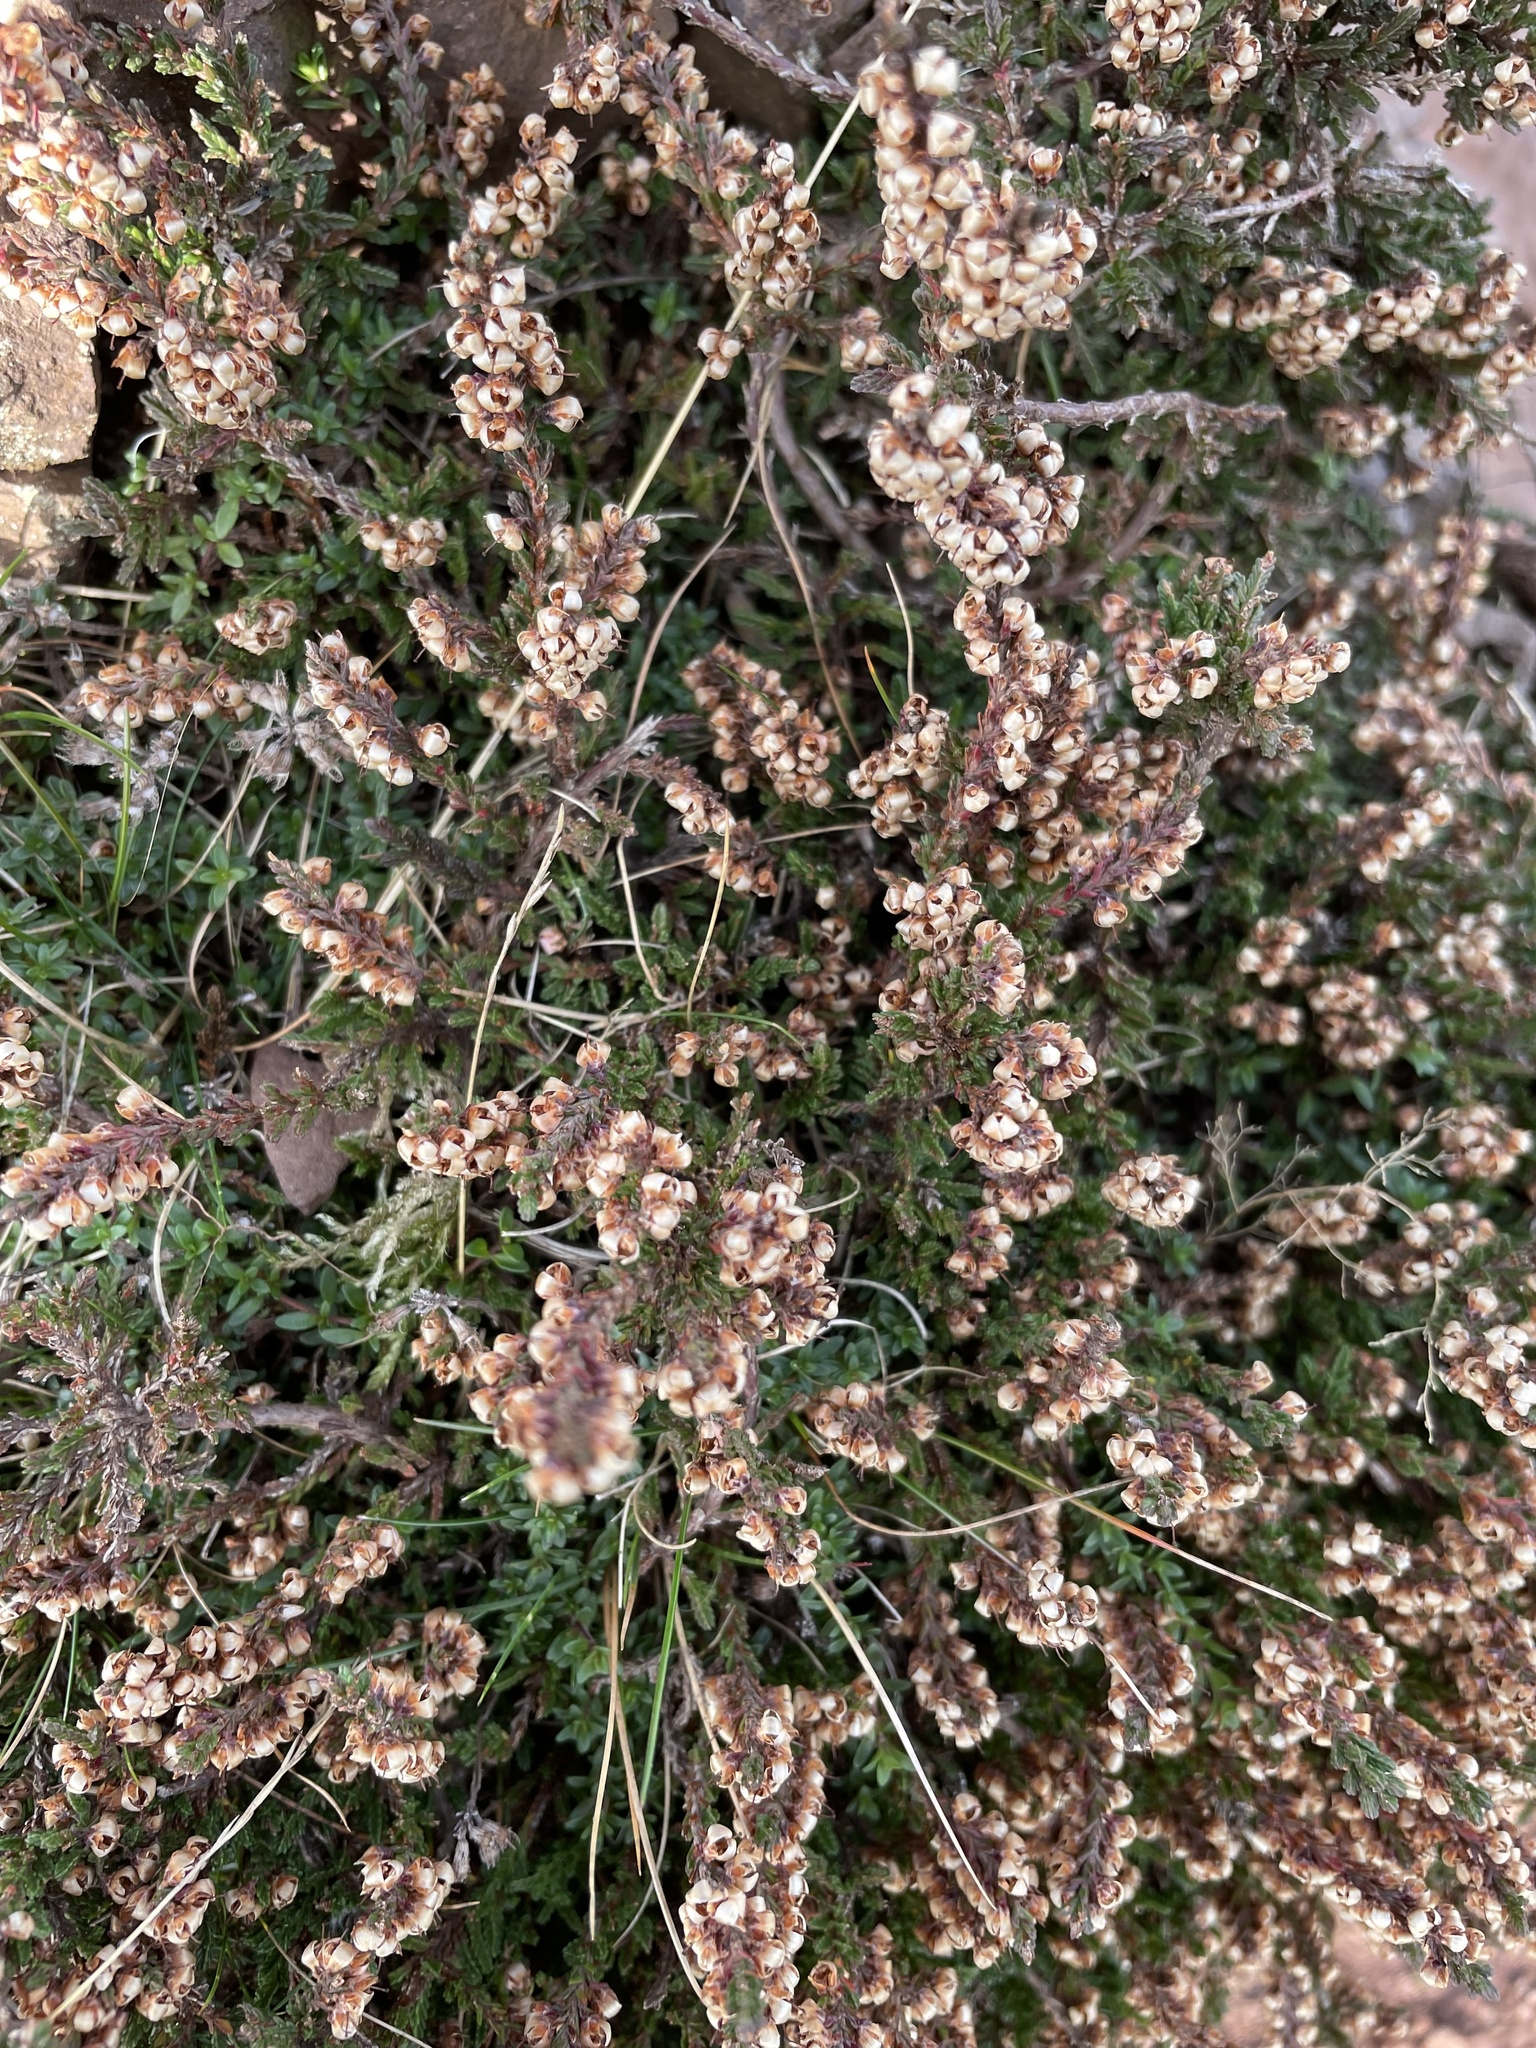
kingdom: Plantae
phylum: Tracheophyta
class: Magnoliopsida
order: Ericales
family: Ericaceae
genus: Calluna
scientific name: Calluna vulgaris
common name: Heather
